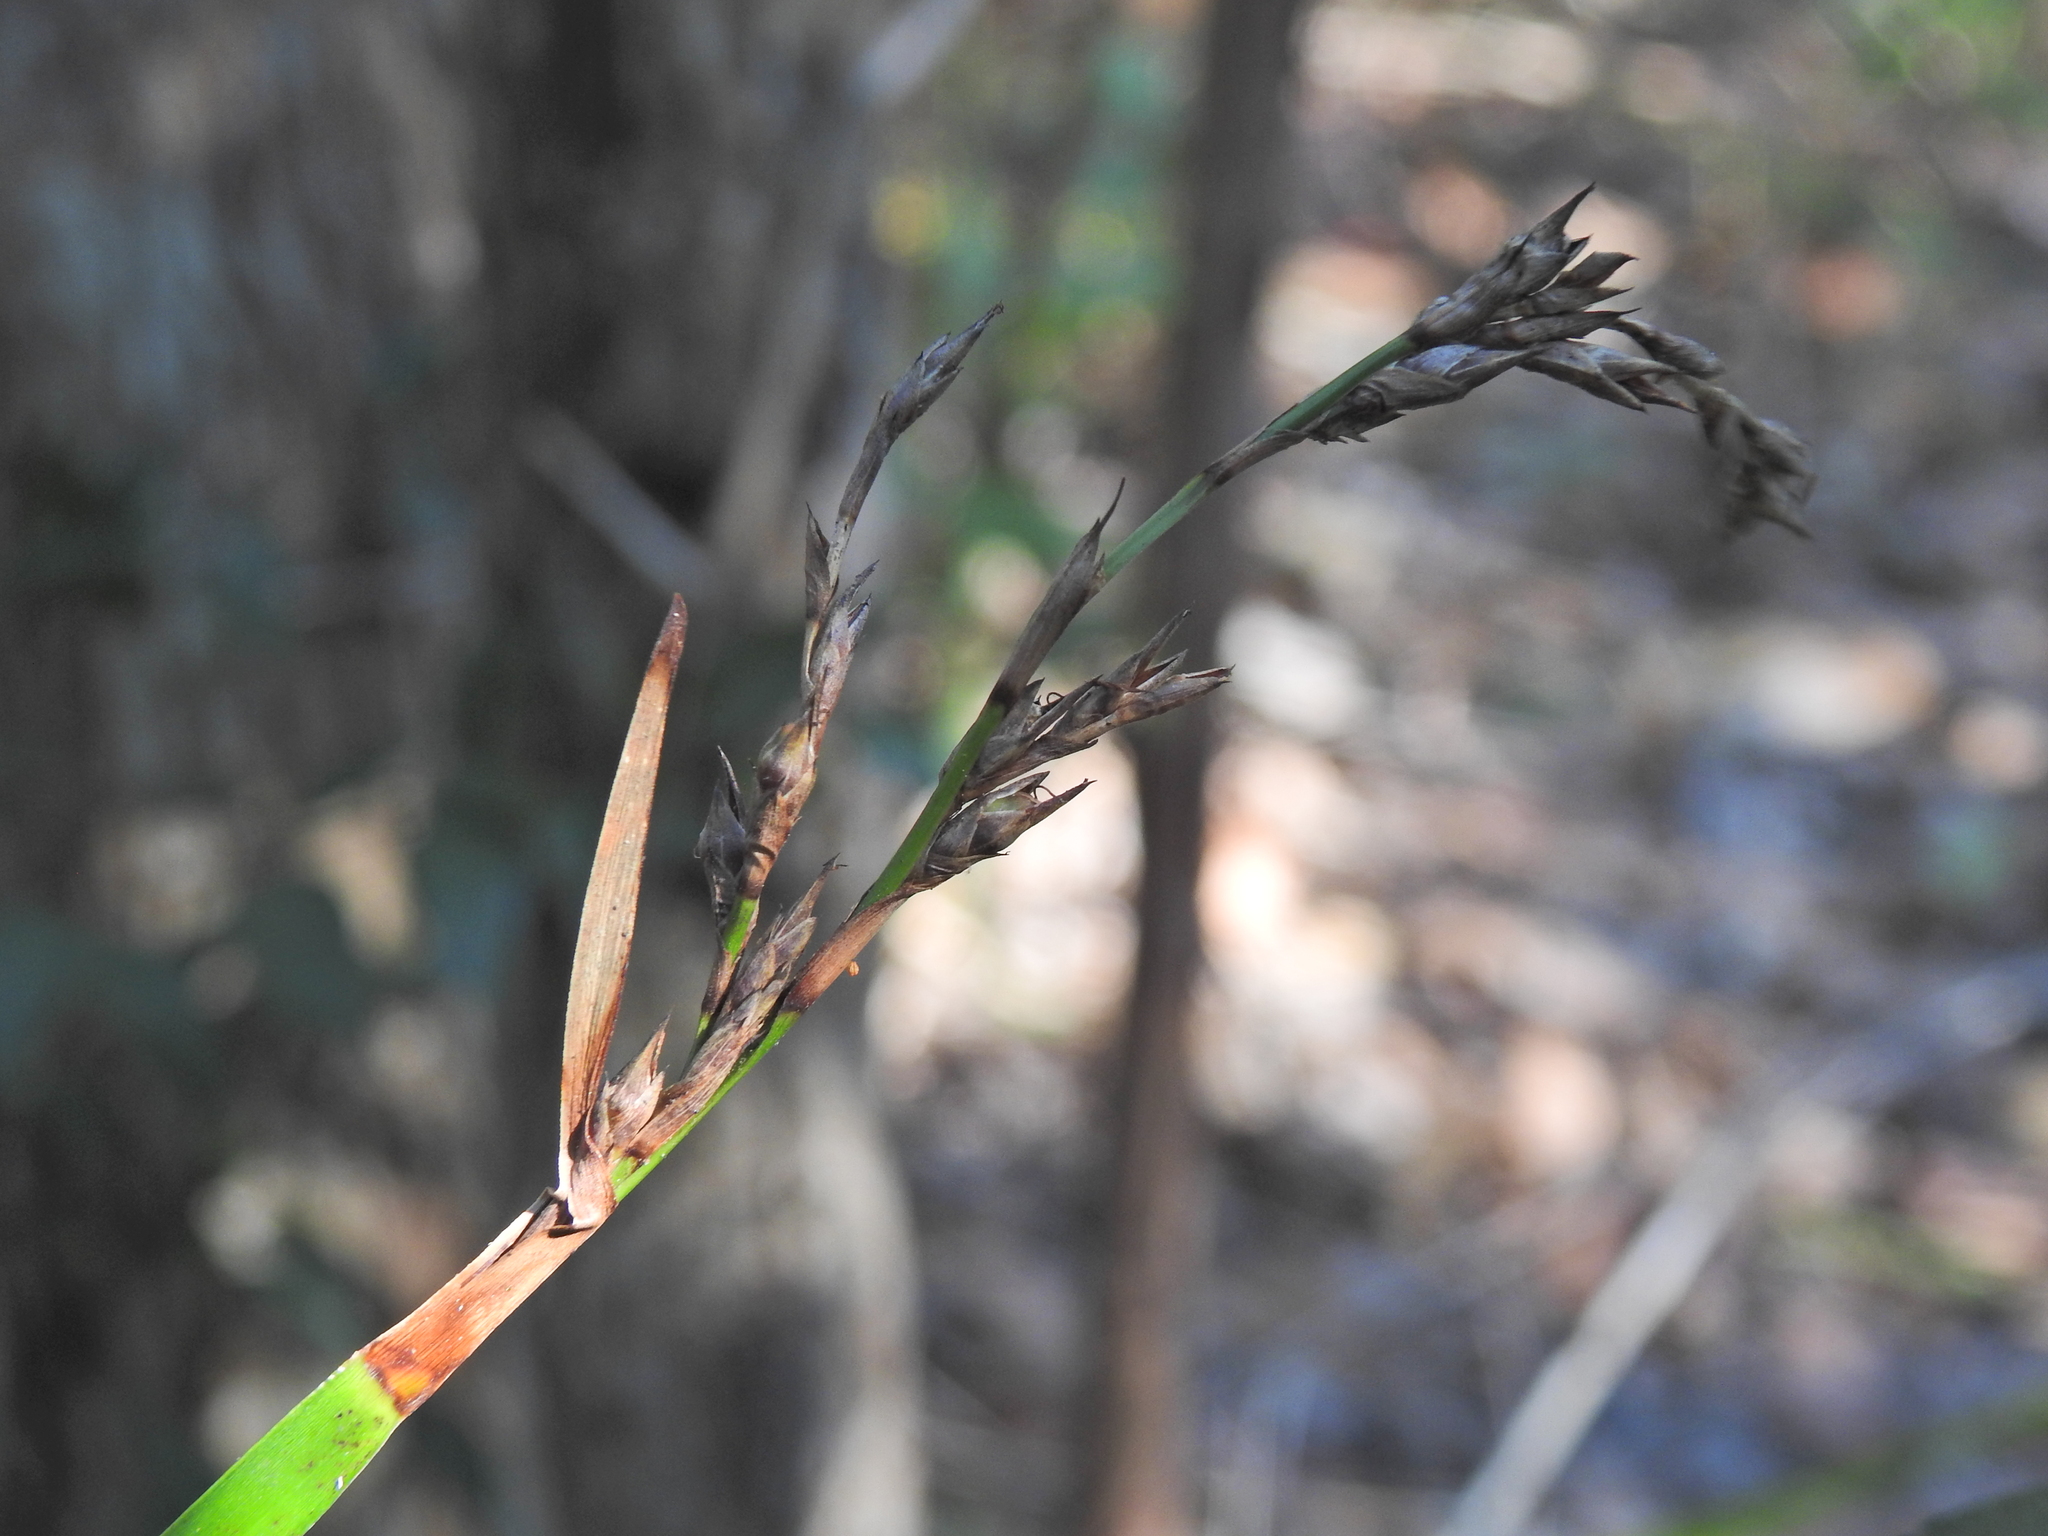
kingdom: Plantae
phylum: Tracheophyta
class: Liliopsida
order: Poales
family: Cyperaceae
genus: Lepidosperma
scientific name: Lepidosperma laterale
